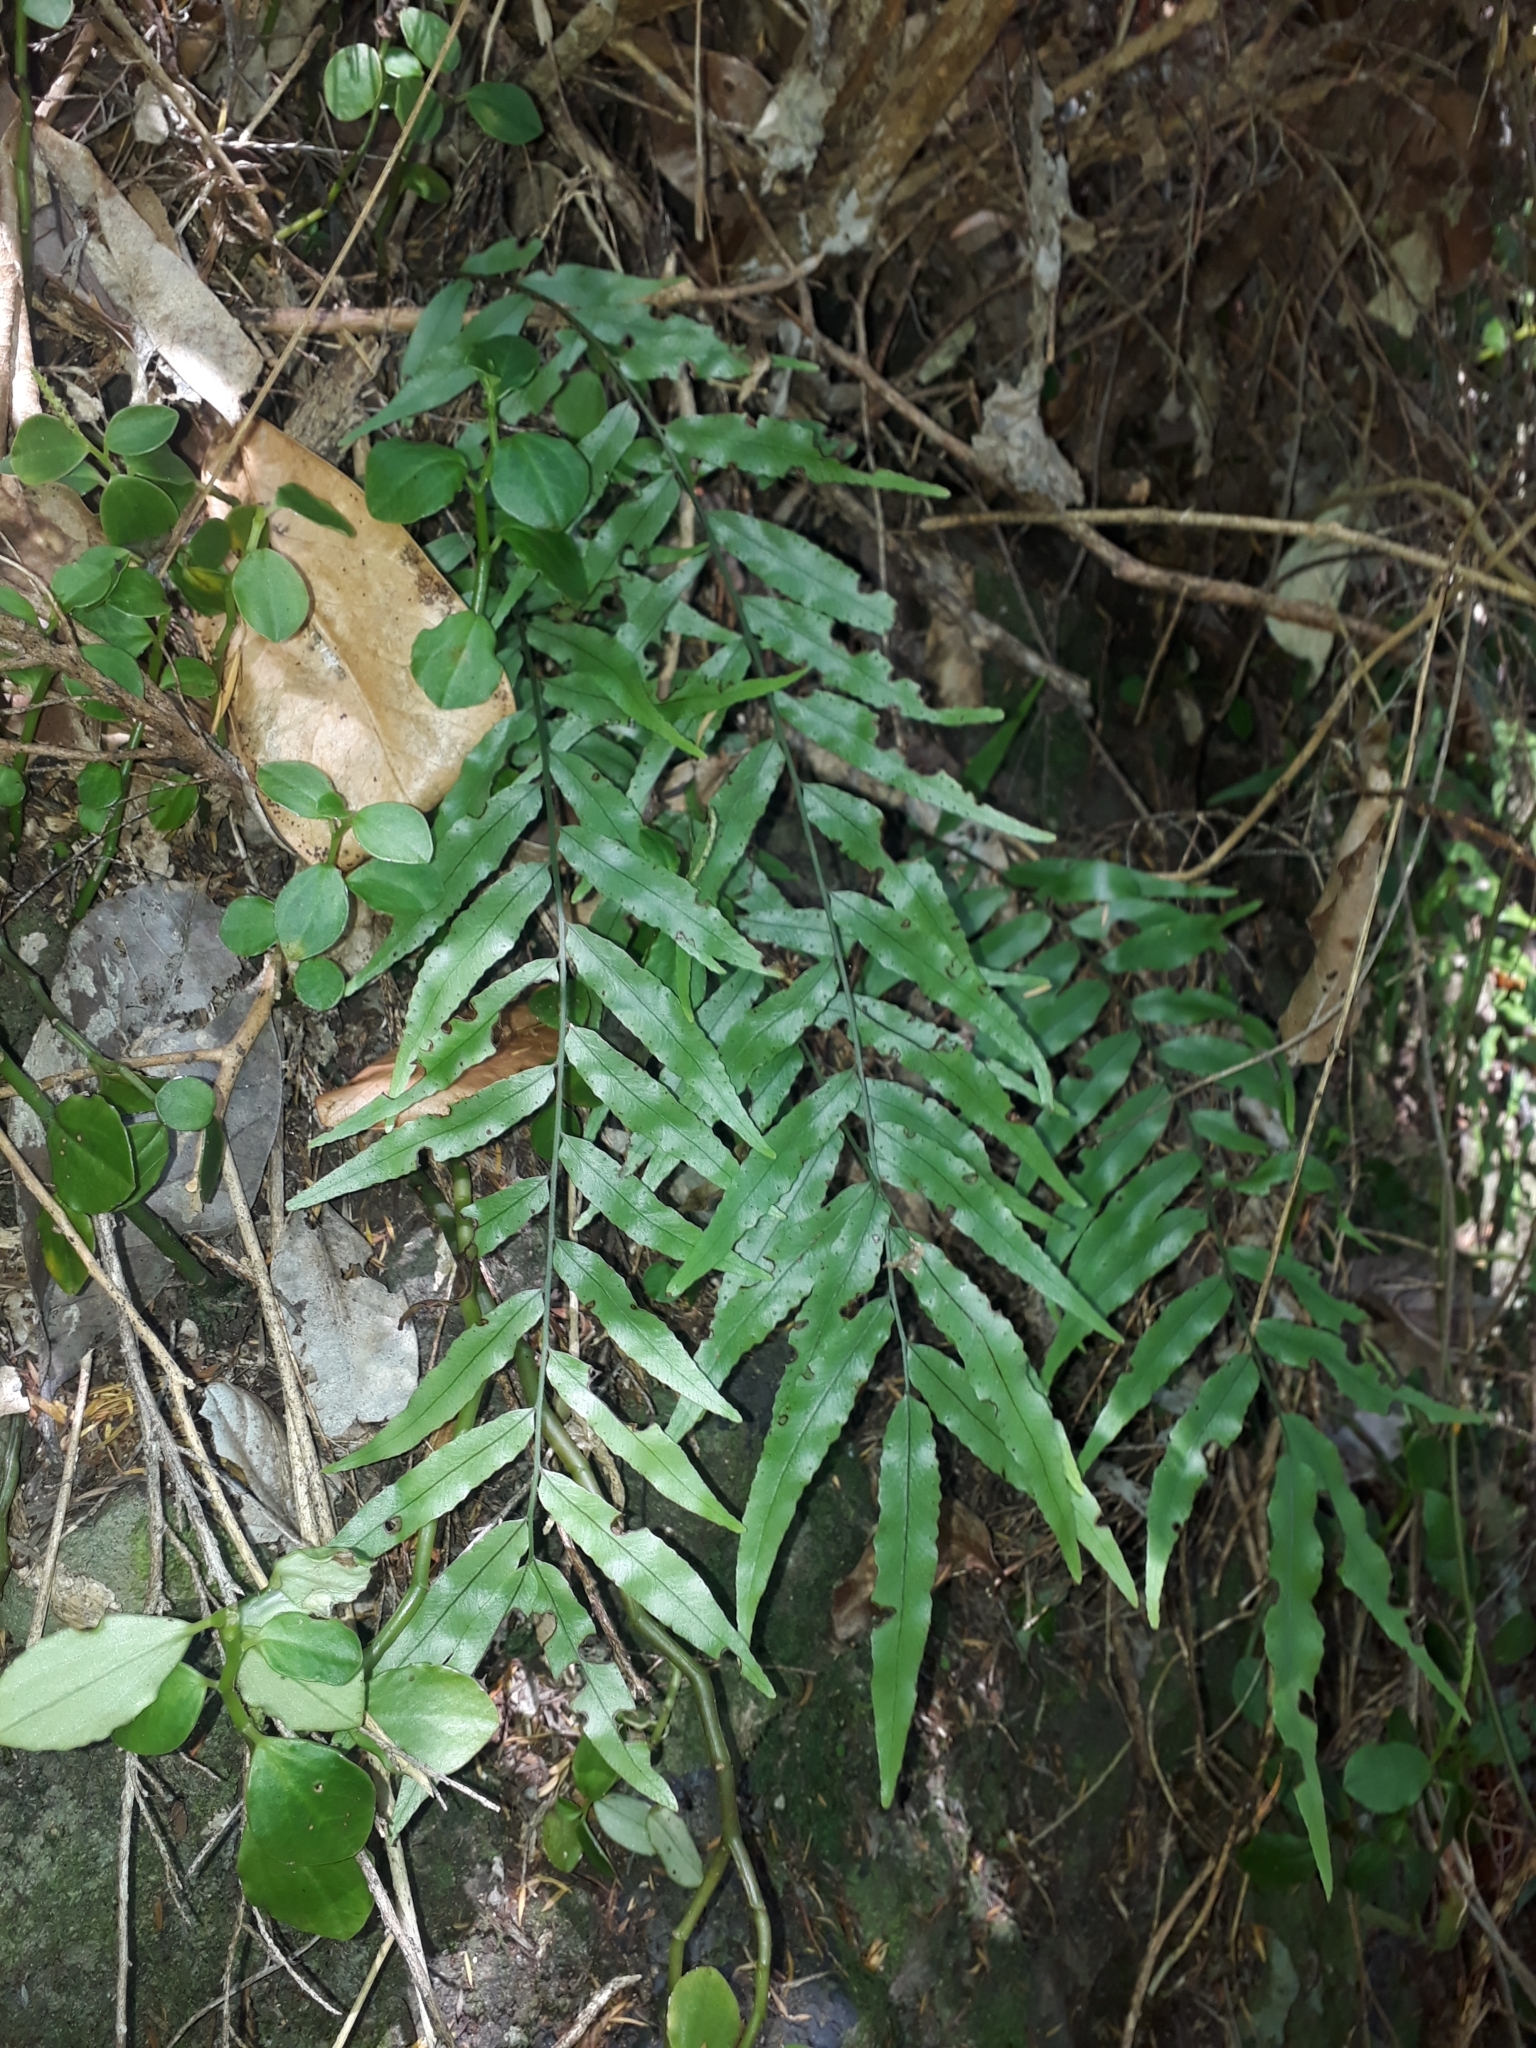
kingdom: Plantae
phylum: Tracheophyta
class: Polypodiopsida
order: Polypodiales
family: Tectariaceae
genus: Arthropteris
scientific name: Arthropteris tenella
